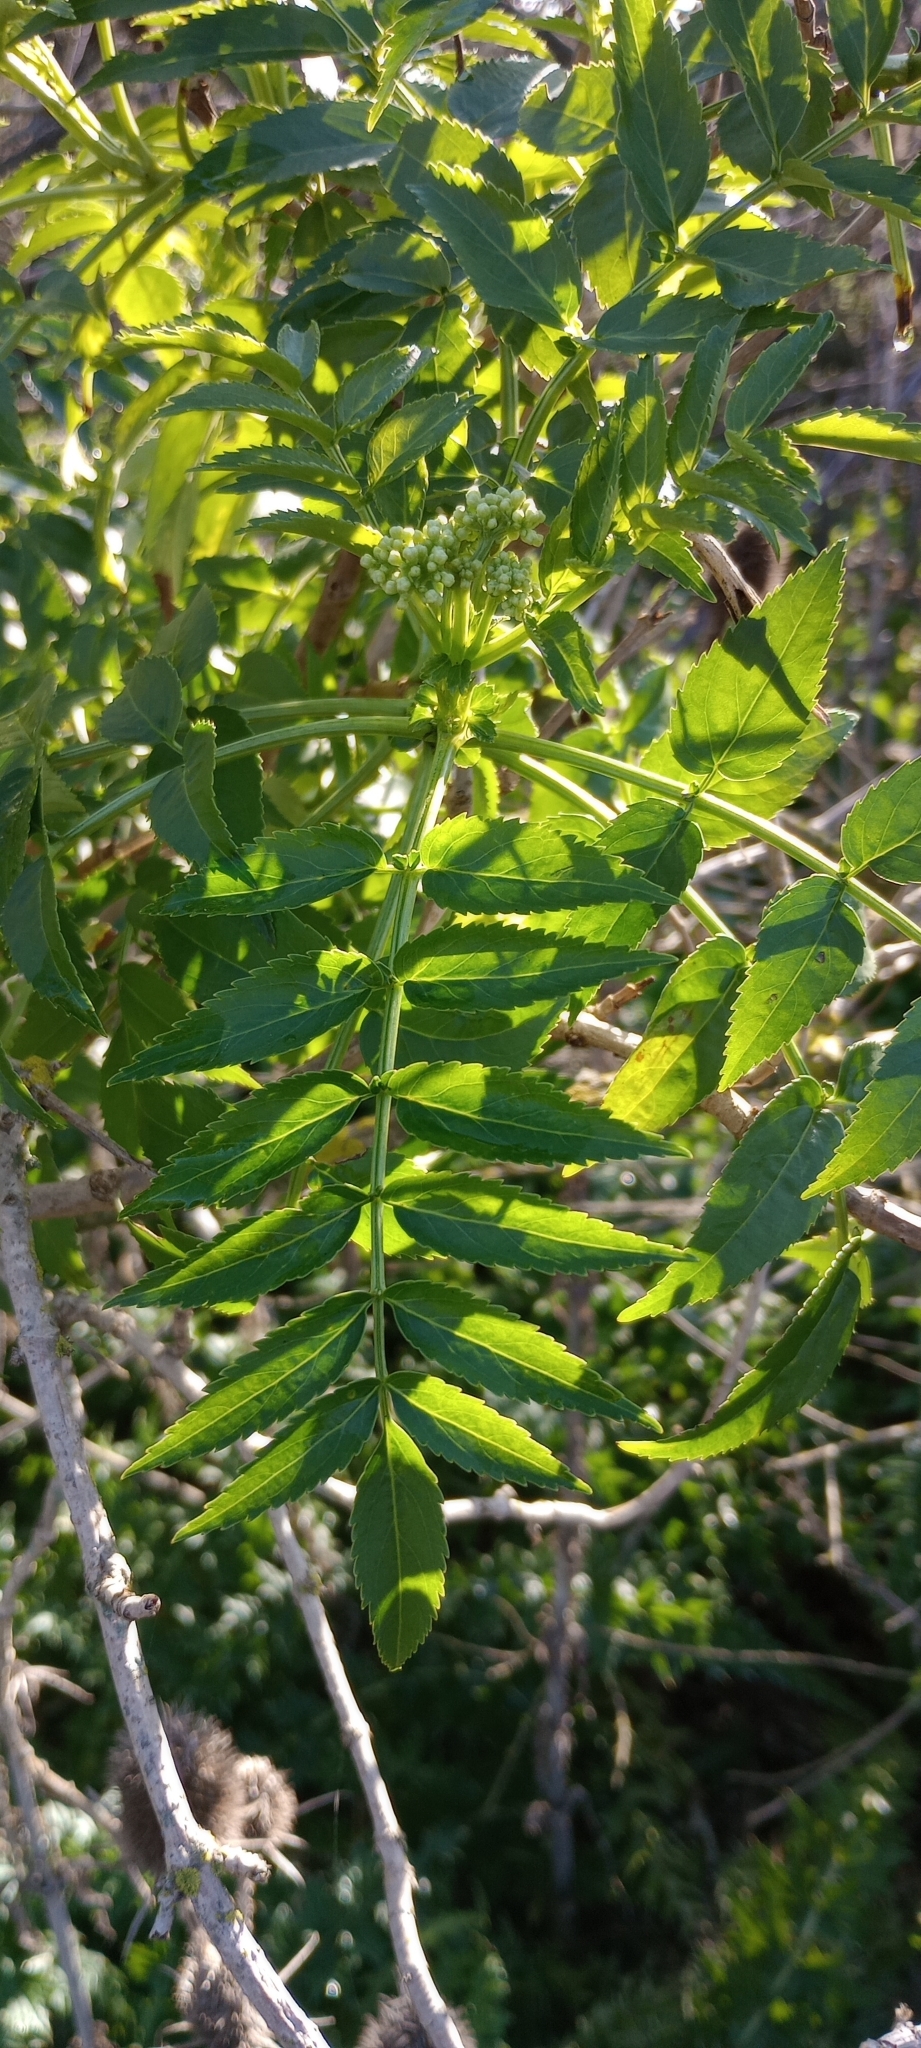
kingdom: Plantae
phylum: Tracheophyta
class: Magnoliopsida
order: Dipsacales
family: Viburnaceae
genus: Sambucus
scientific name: Sambucus australis
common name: Southern elder
